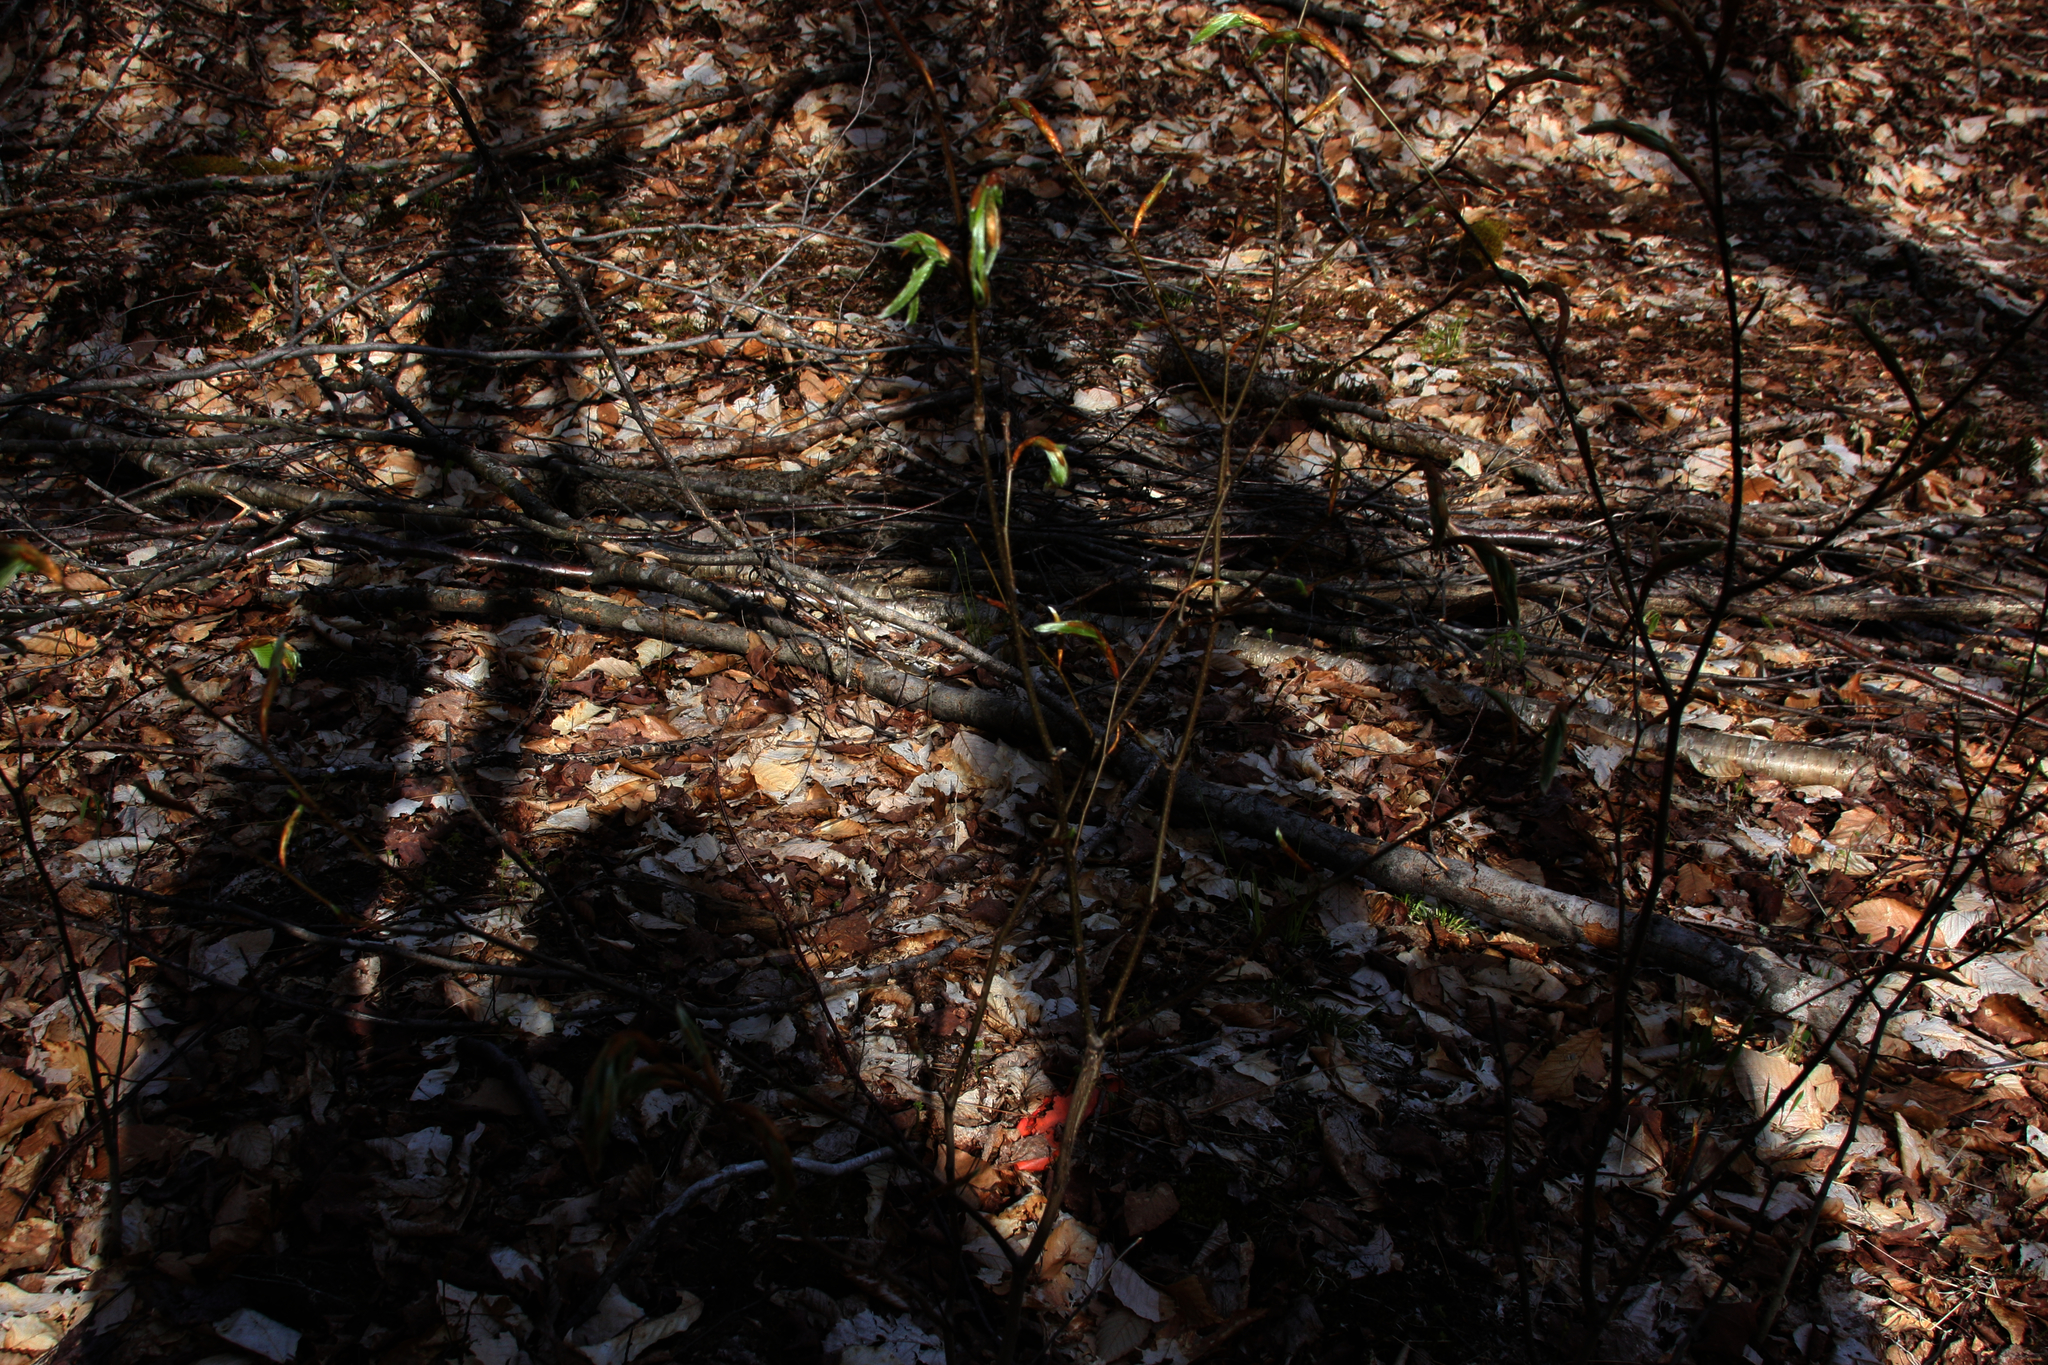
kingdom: Plantae
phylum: Tracheophyta
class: Magnoliopsida
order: Fagales
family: Fagaceae
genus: Fagus
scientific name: Fagus grandifolia
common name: American beech
